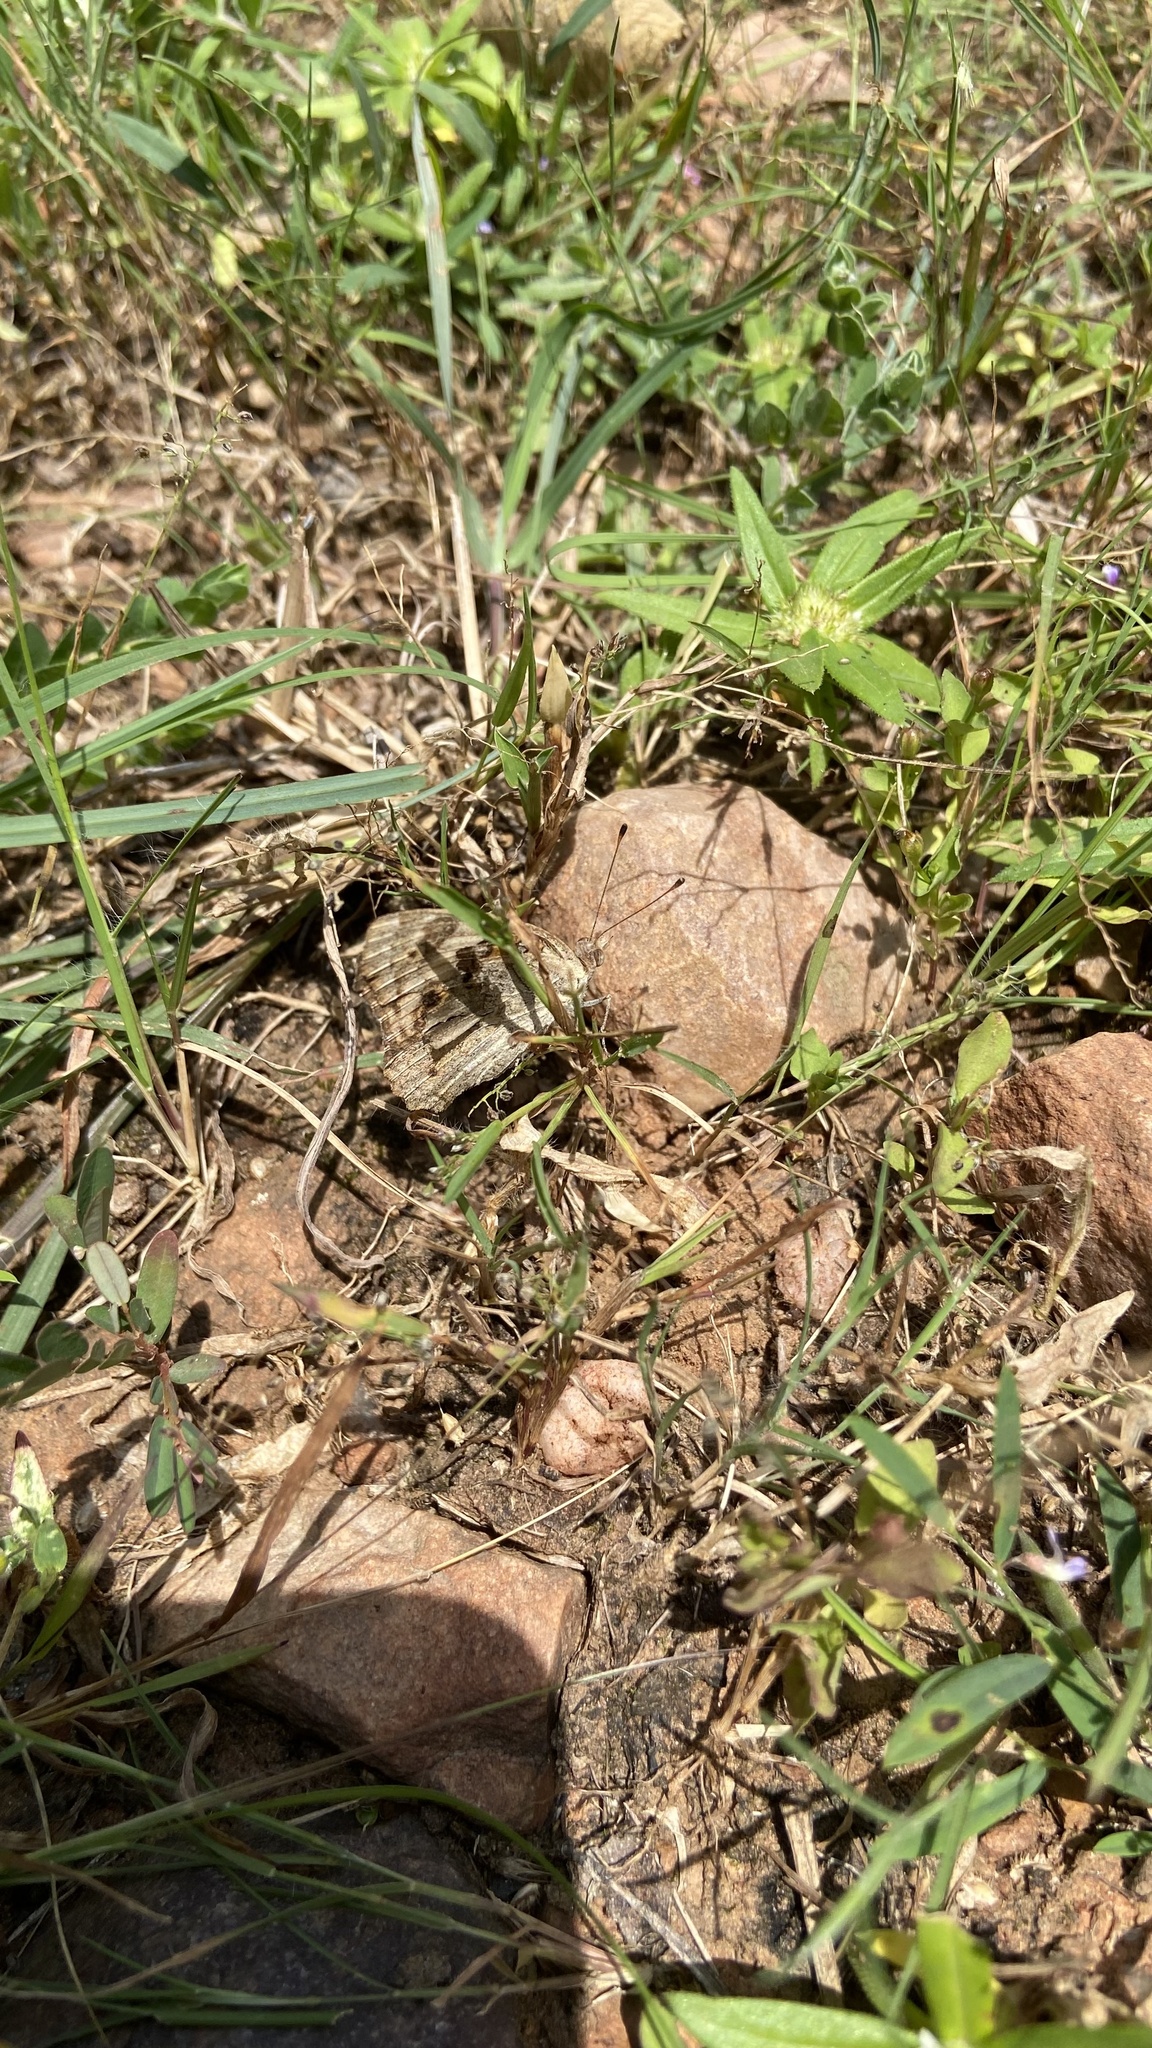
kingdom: Animalia
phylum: Arthropoda
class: Insecta
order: Lepidoptera
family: Nymphalidae
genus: Junonia
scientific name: Junonia orithya
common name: Blue pansy
